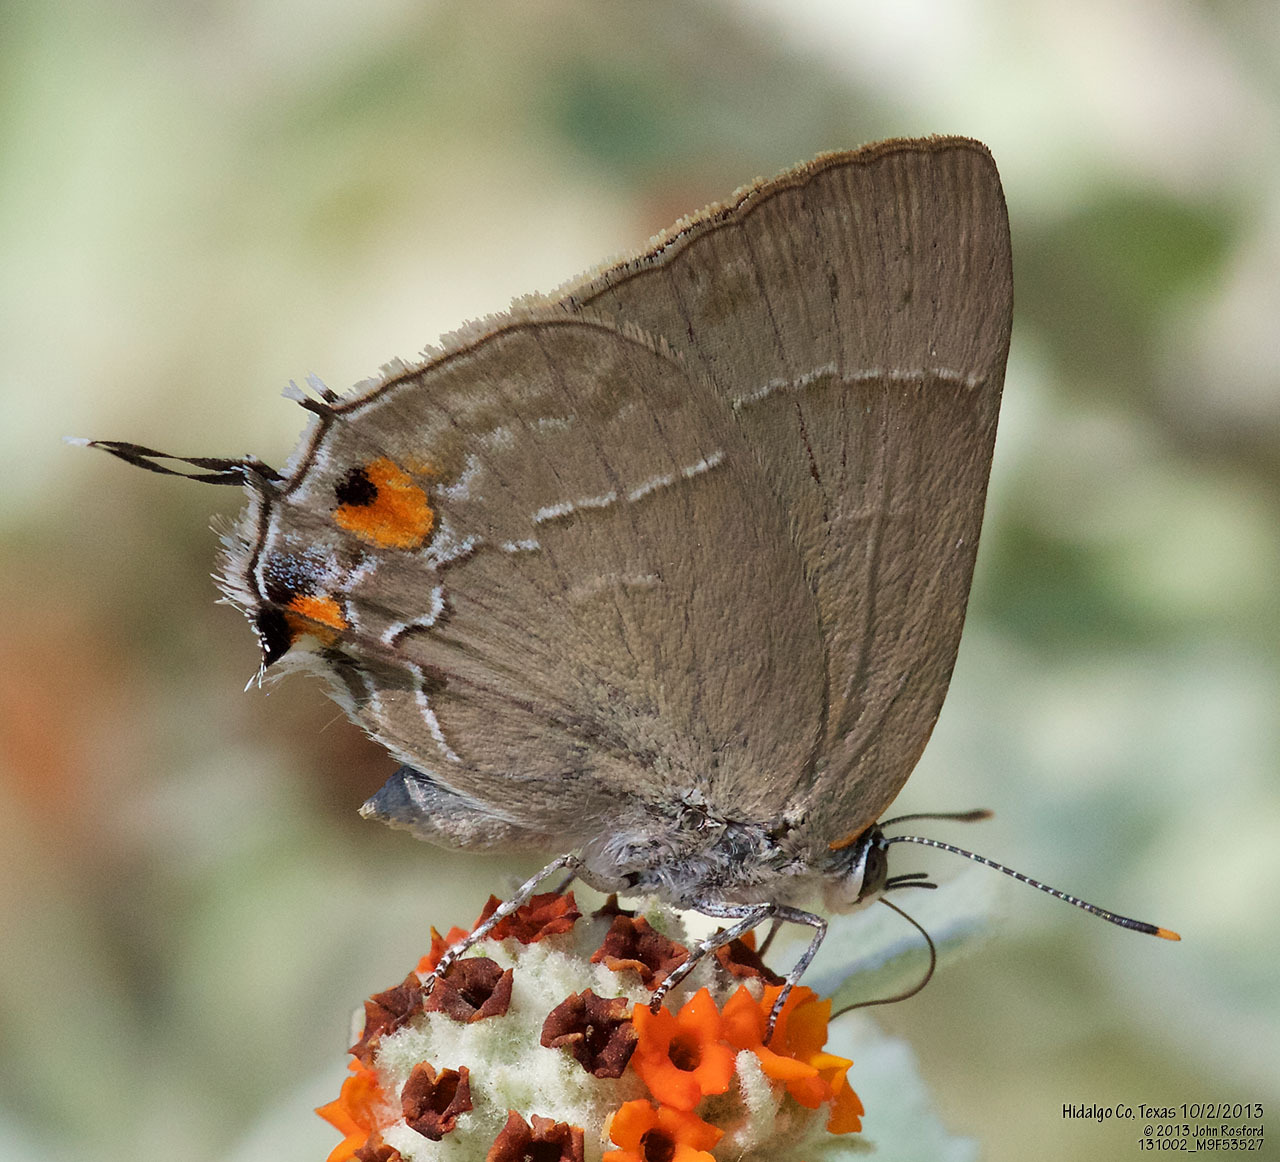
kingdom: Animalia
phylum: Arthropoda
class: Insecta
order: Lepidoptera
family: Lycaenidae
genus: Thecla
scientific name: Thecla marius
